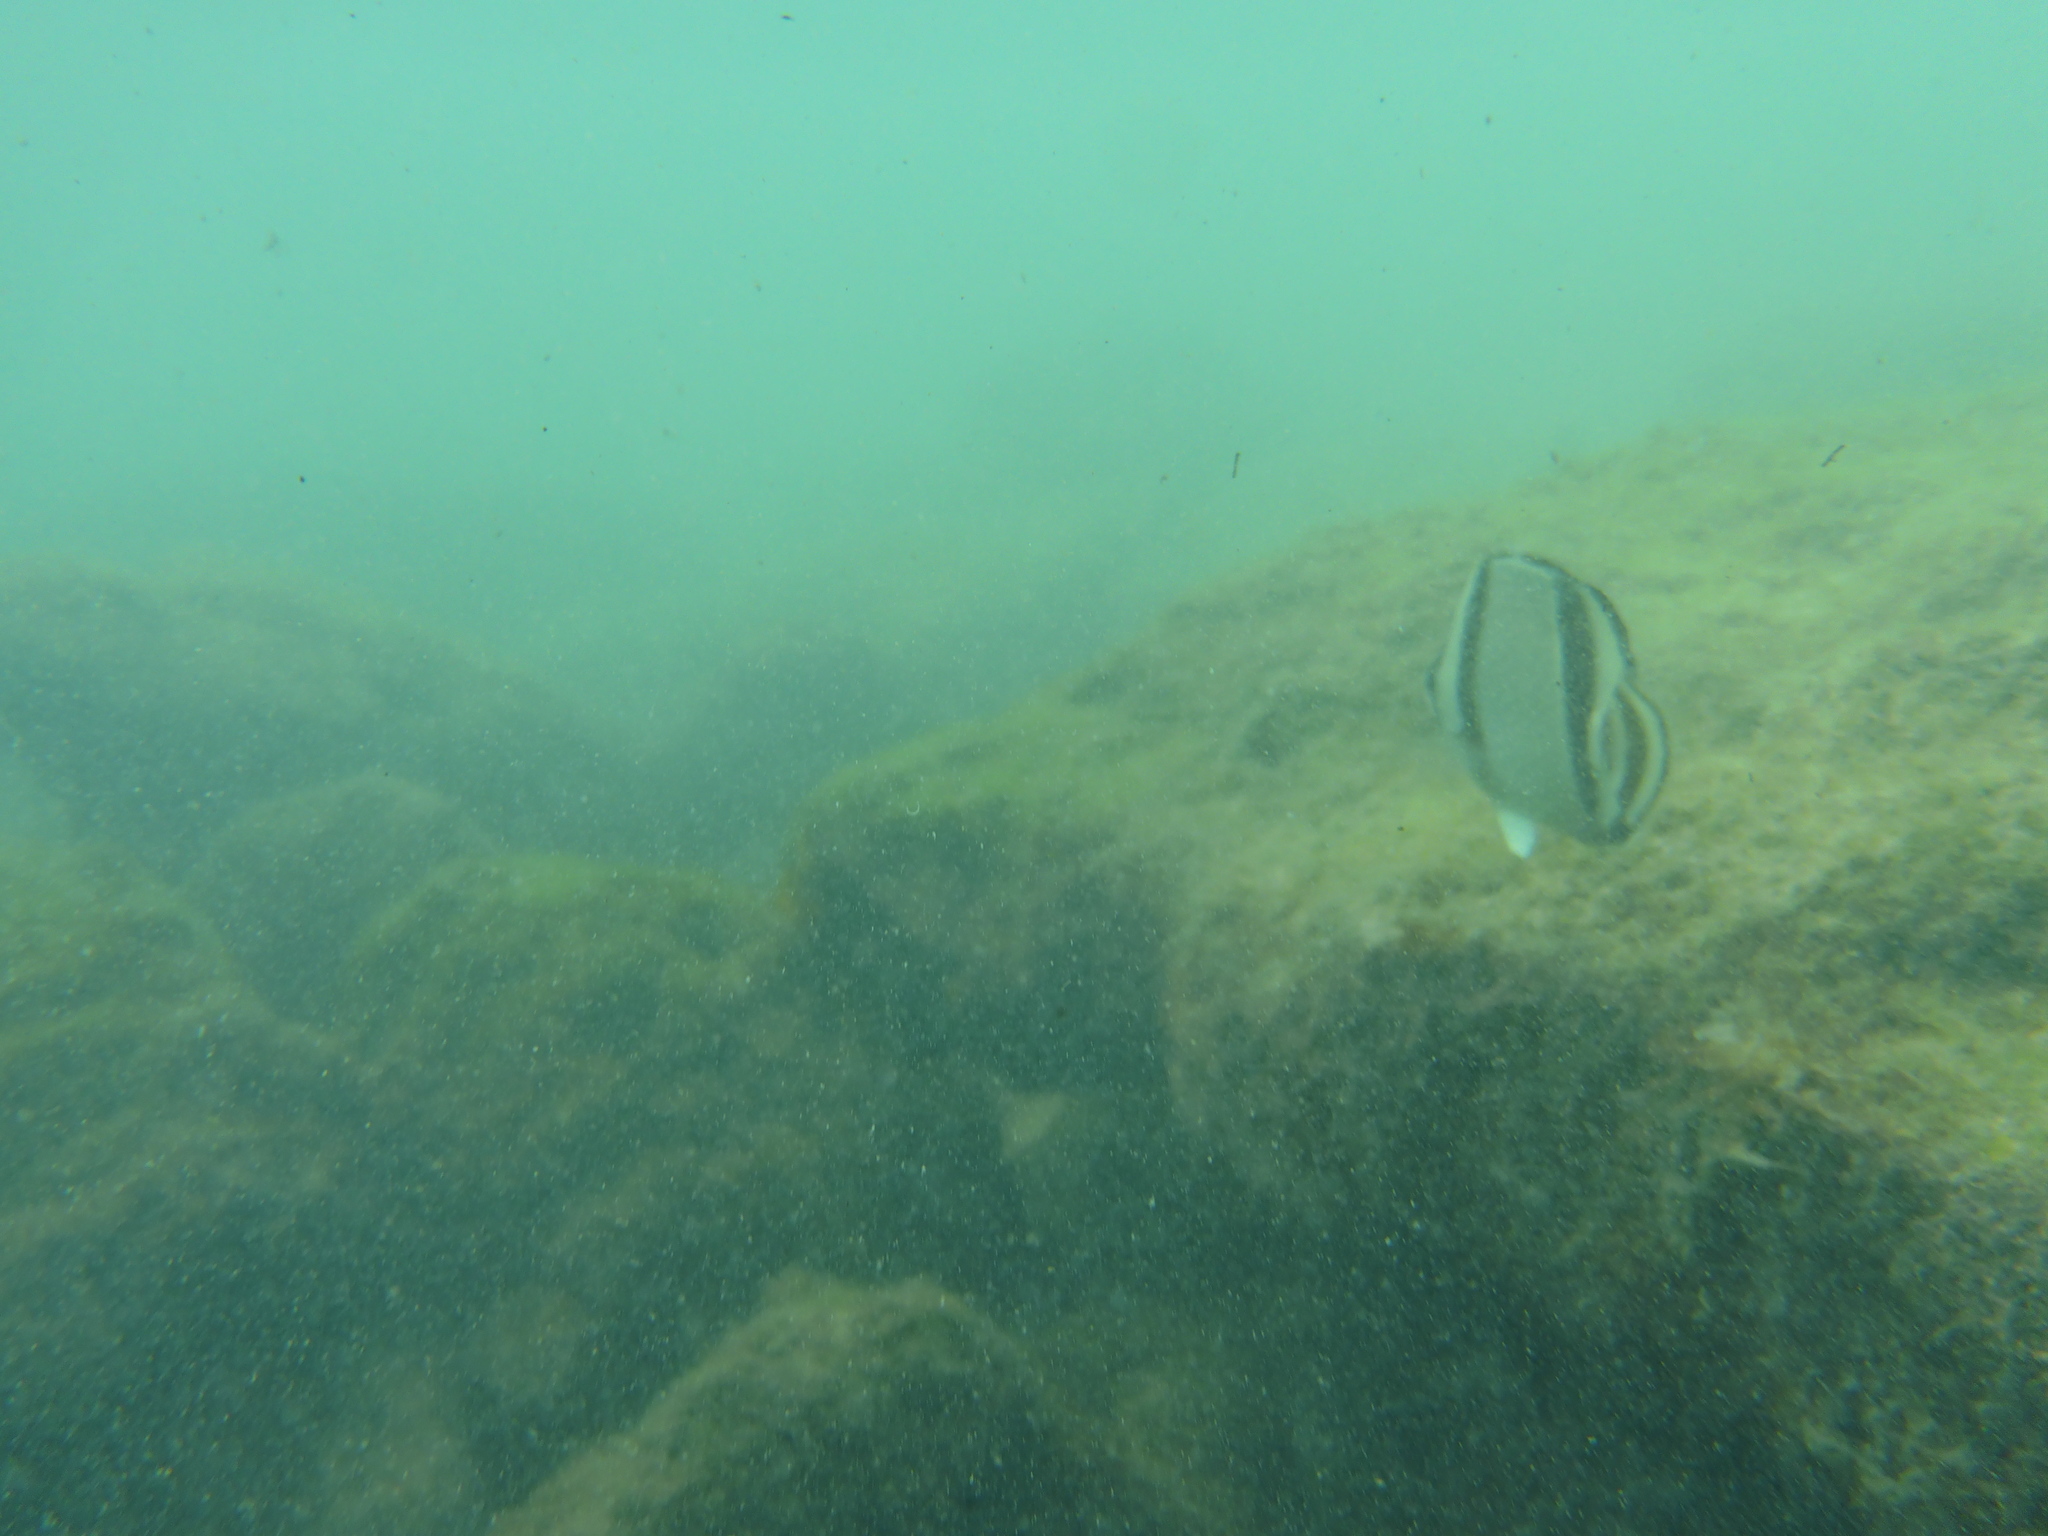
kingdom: Animalia
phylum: Chordata
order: Perciformes
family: Chaetodontidae
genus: Chaetodon
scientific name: Chaetodon humeralis
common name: Threebanded butterflyfish
